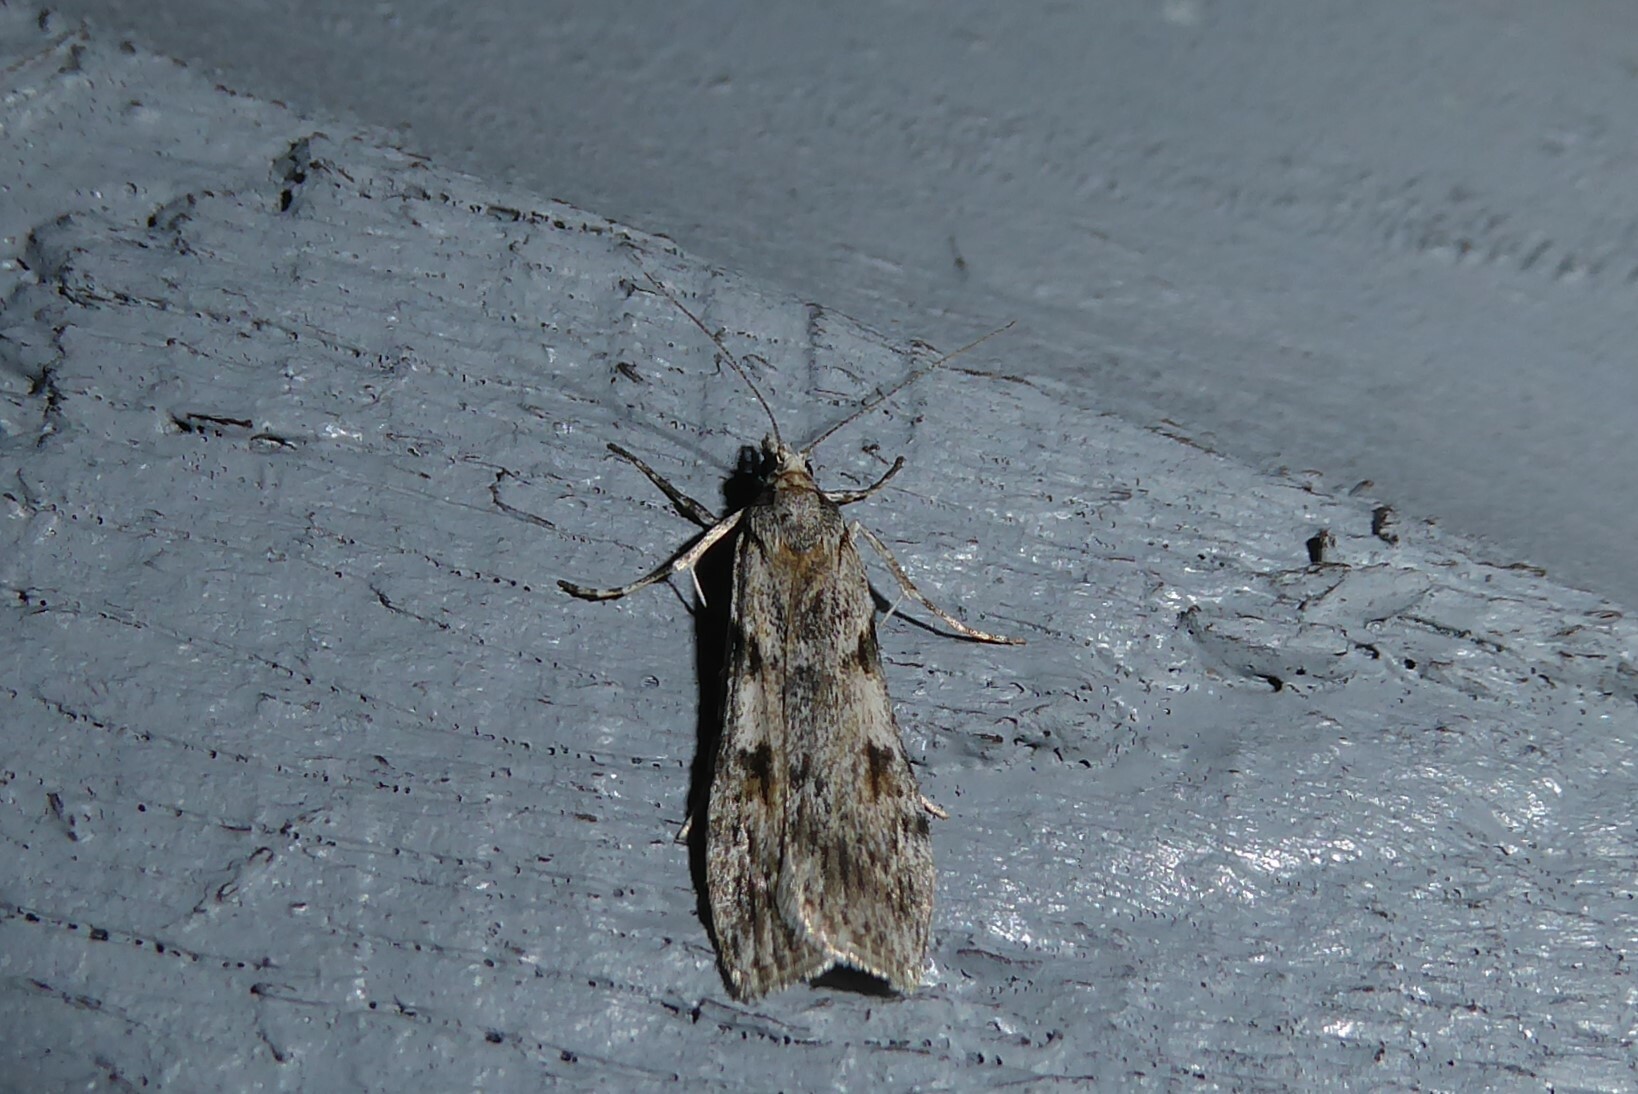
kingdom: Animalia
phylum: Arthropoda
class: Insecta
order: Lepidoptera
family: Crambidae
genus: Scoparia
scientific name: Scoparia halopis
